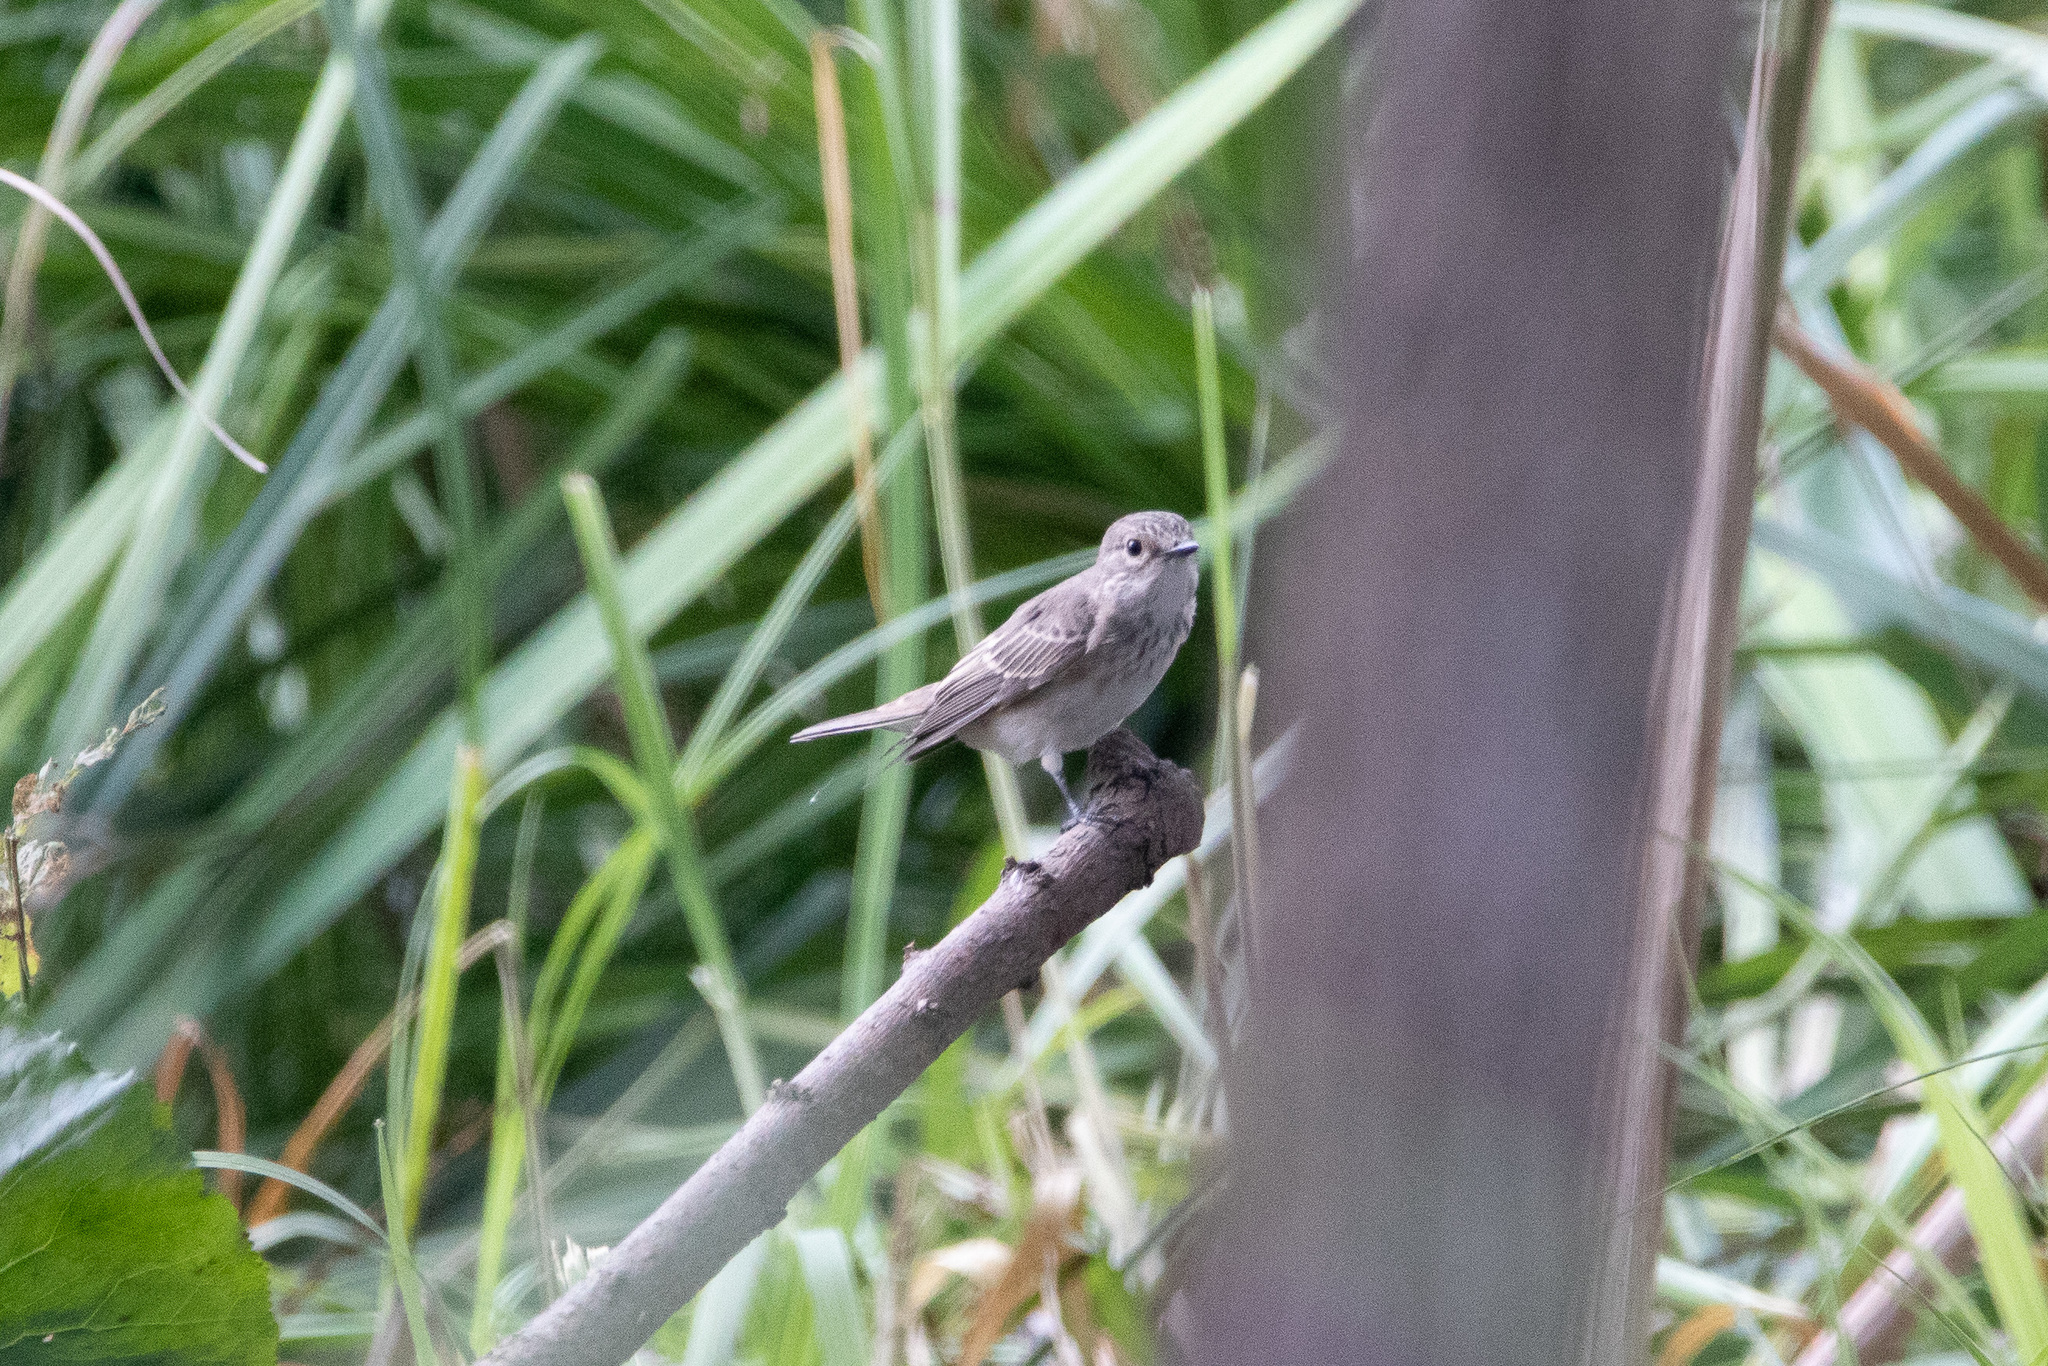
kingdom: Animalia
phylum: Chordata
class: Aves
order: Passeriformes
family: Muscicapidae
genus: Muscicapa
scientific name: Muscicapa striata
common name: Spotted flycatcher
